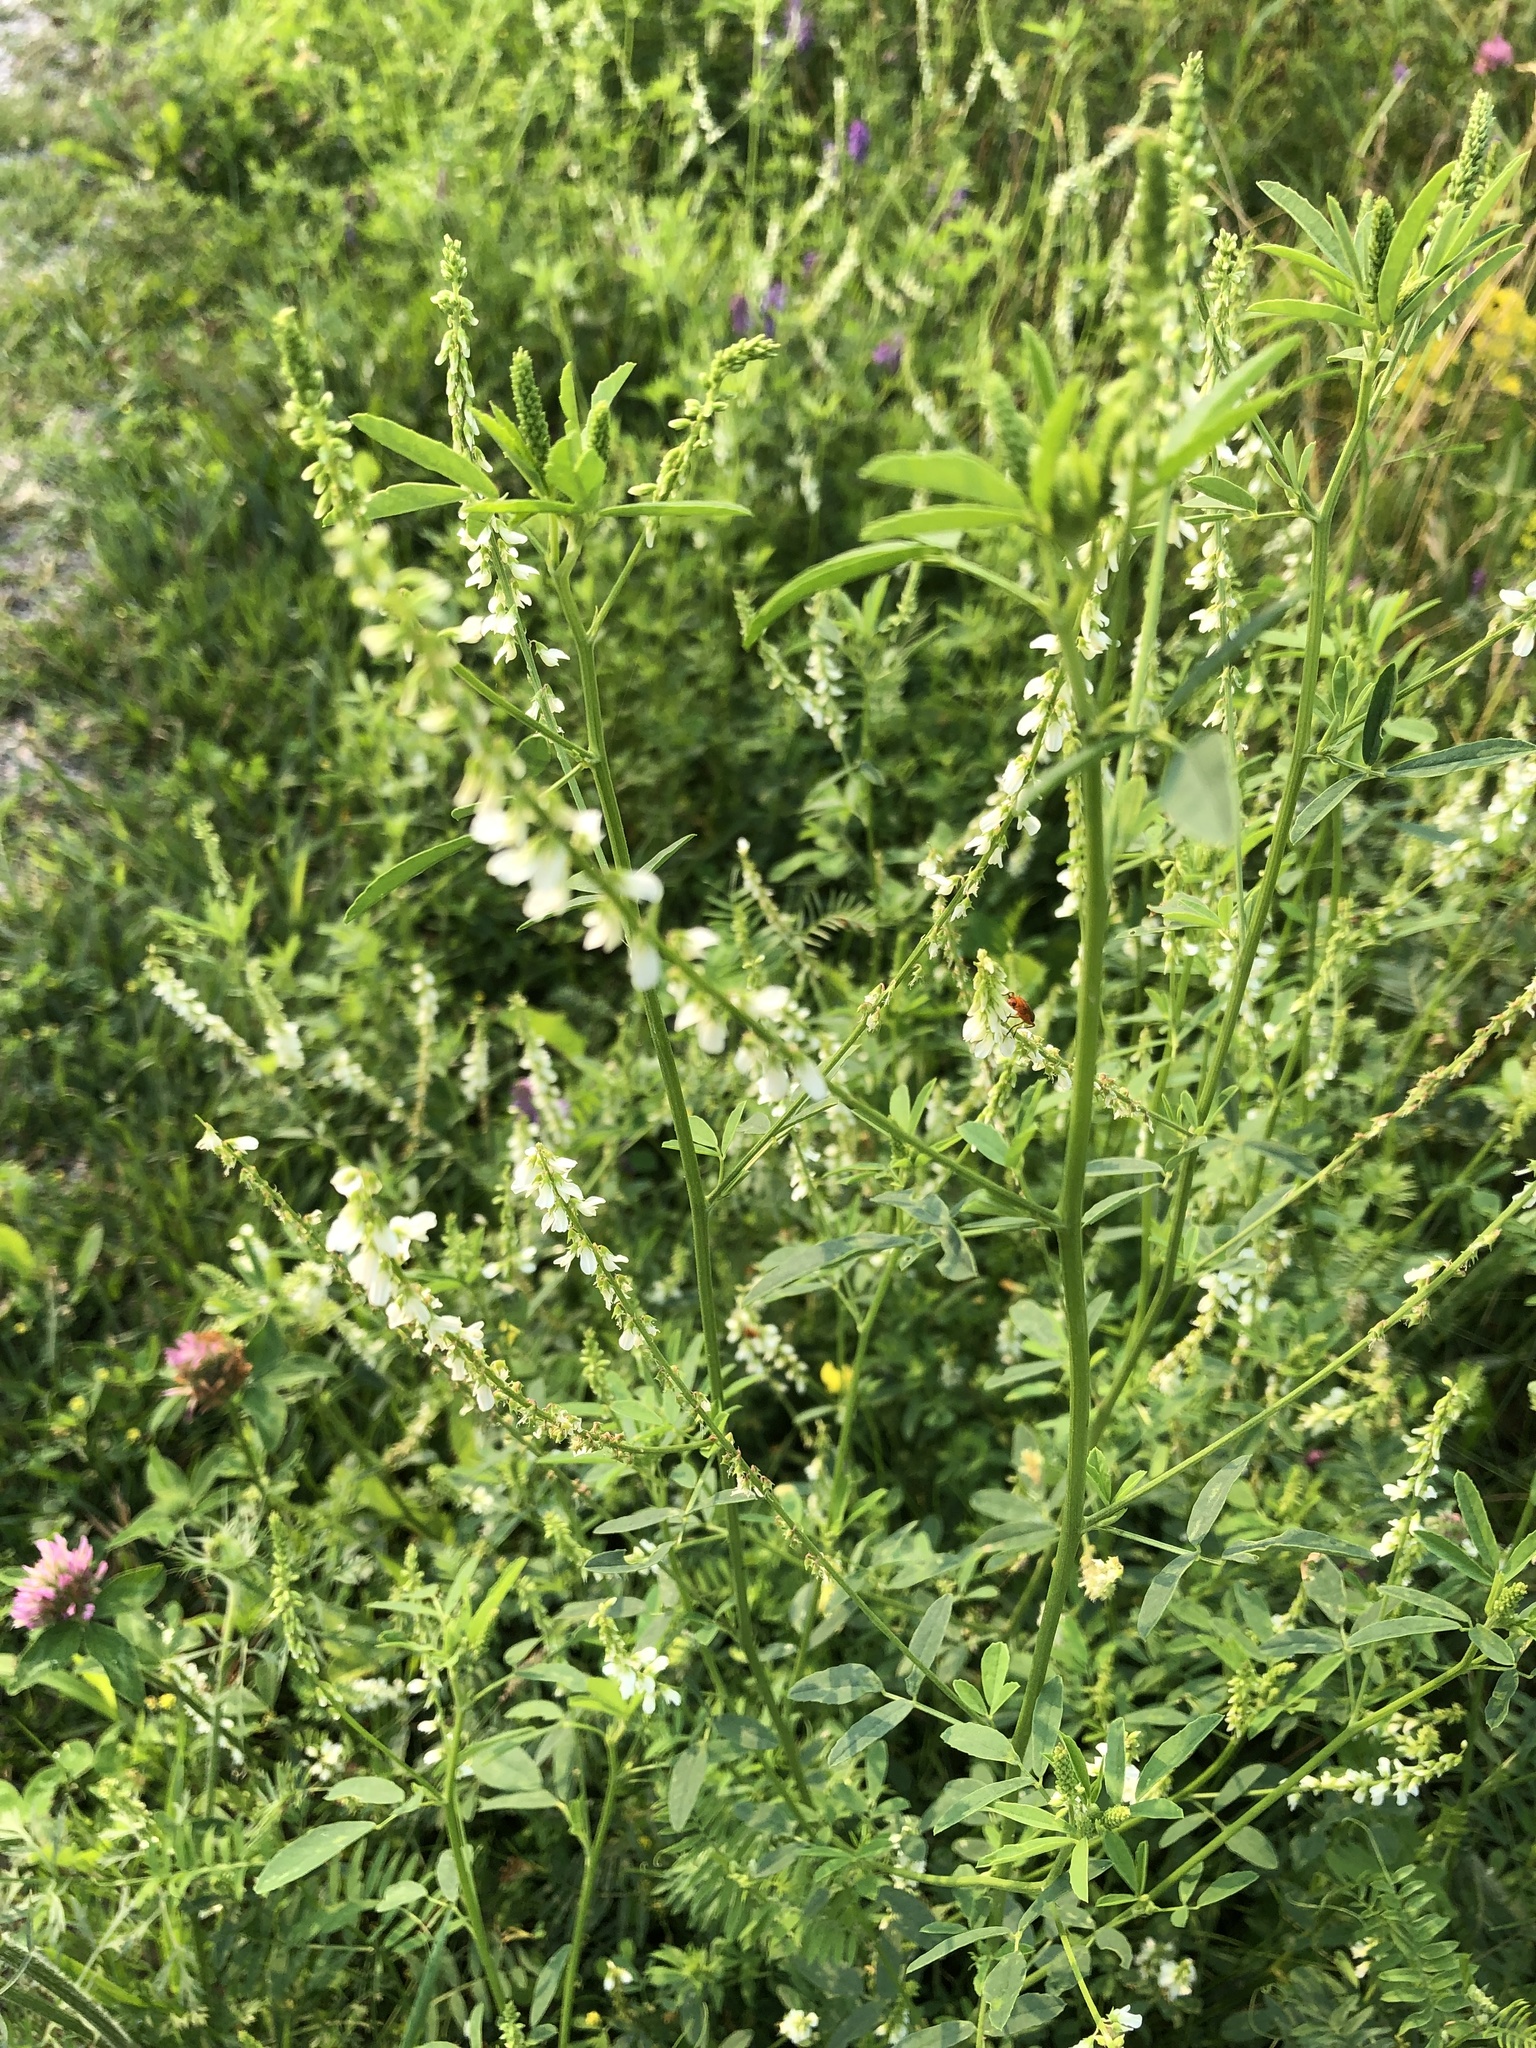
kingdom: Plantae
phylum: Tracheophyta
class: Magnoliopsida
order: Fabales
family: Fabaceae
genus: Melilotus
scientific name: Melilotus albus
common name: White melilot
